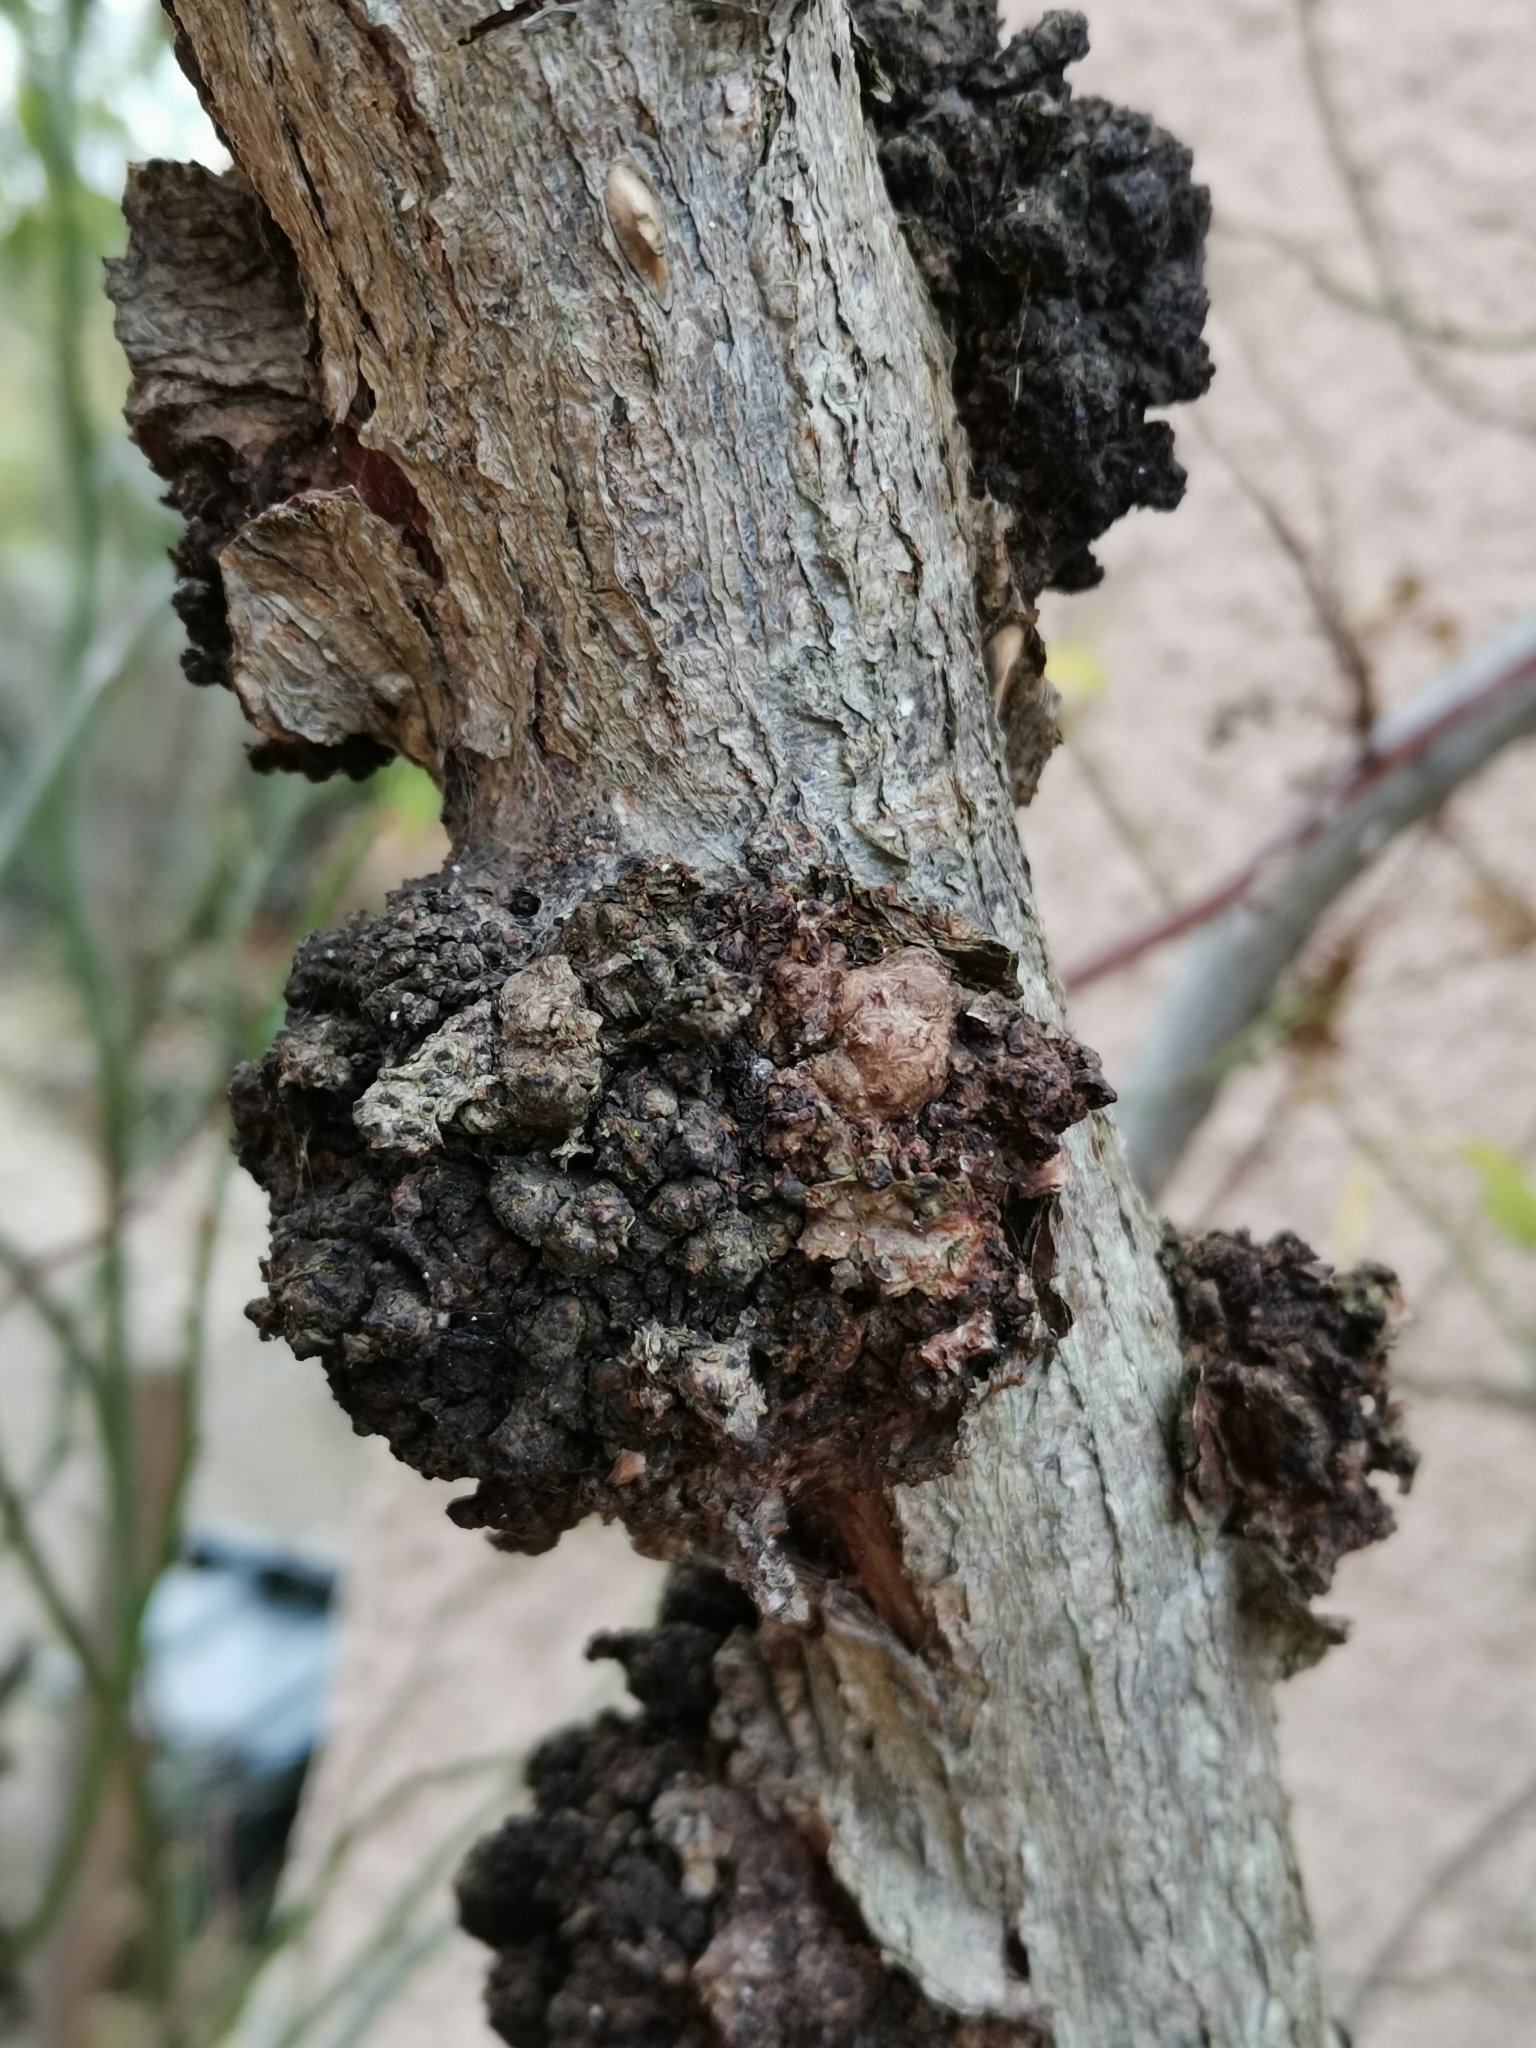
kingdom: Bacteria
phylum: Proteobacteria
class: Alphaproteobacteria
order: Rhizobiales
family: Rhizobiaceae
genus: Rhizobium
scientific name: Rhizobium Agrobacterium radiobacter
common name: Bacterial crown gall
